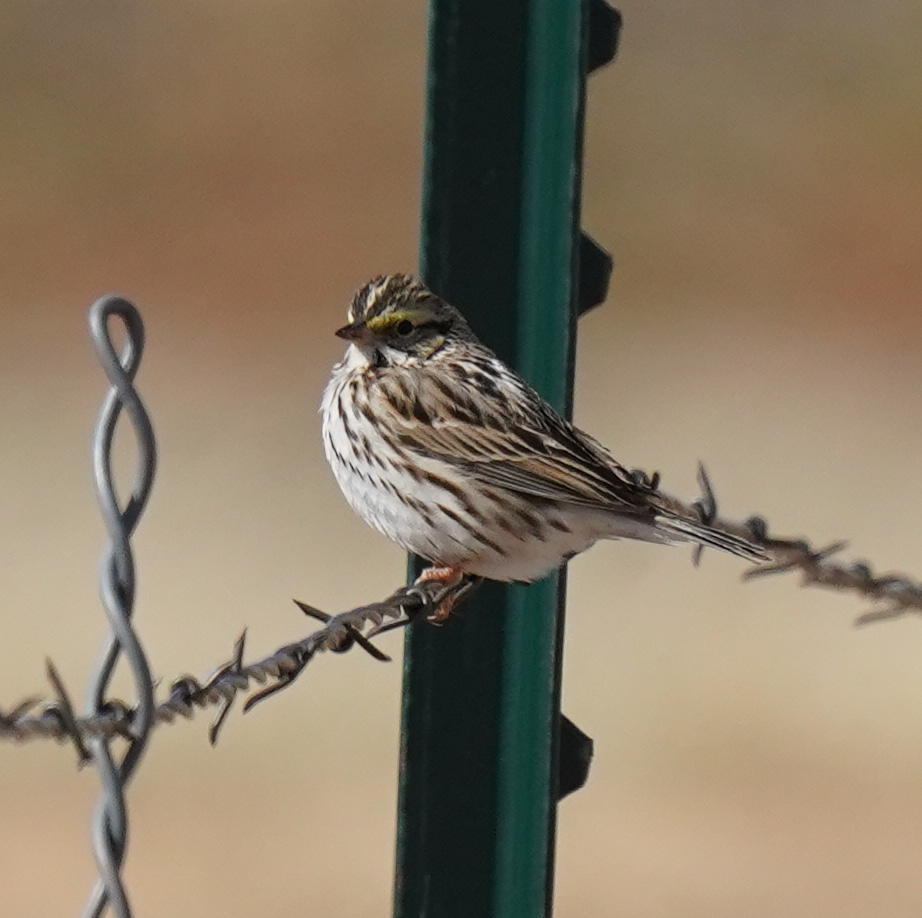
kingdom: Animalia
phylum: Chordata
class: Aves
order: Passeriformes
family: Passerellidae
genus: Passerculus
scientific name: Passerculus sandwichensis
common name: Savannah sparrow
